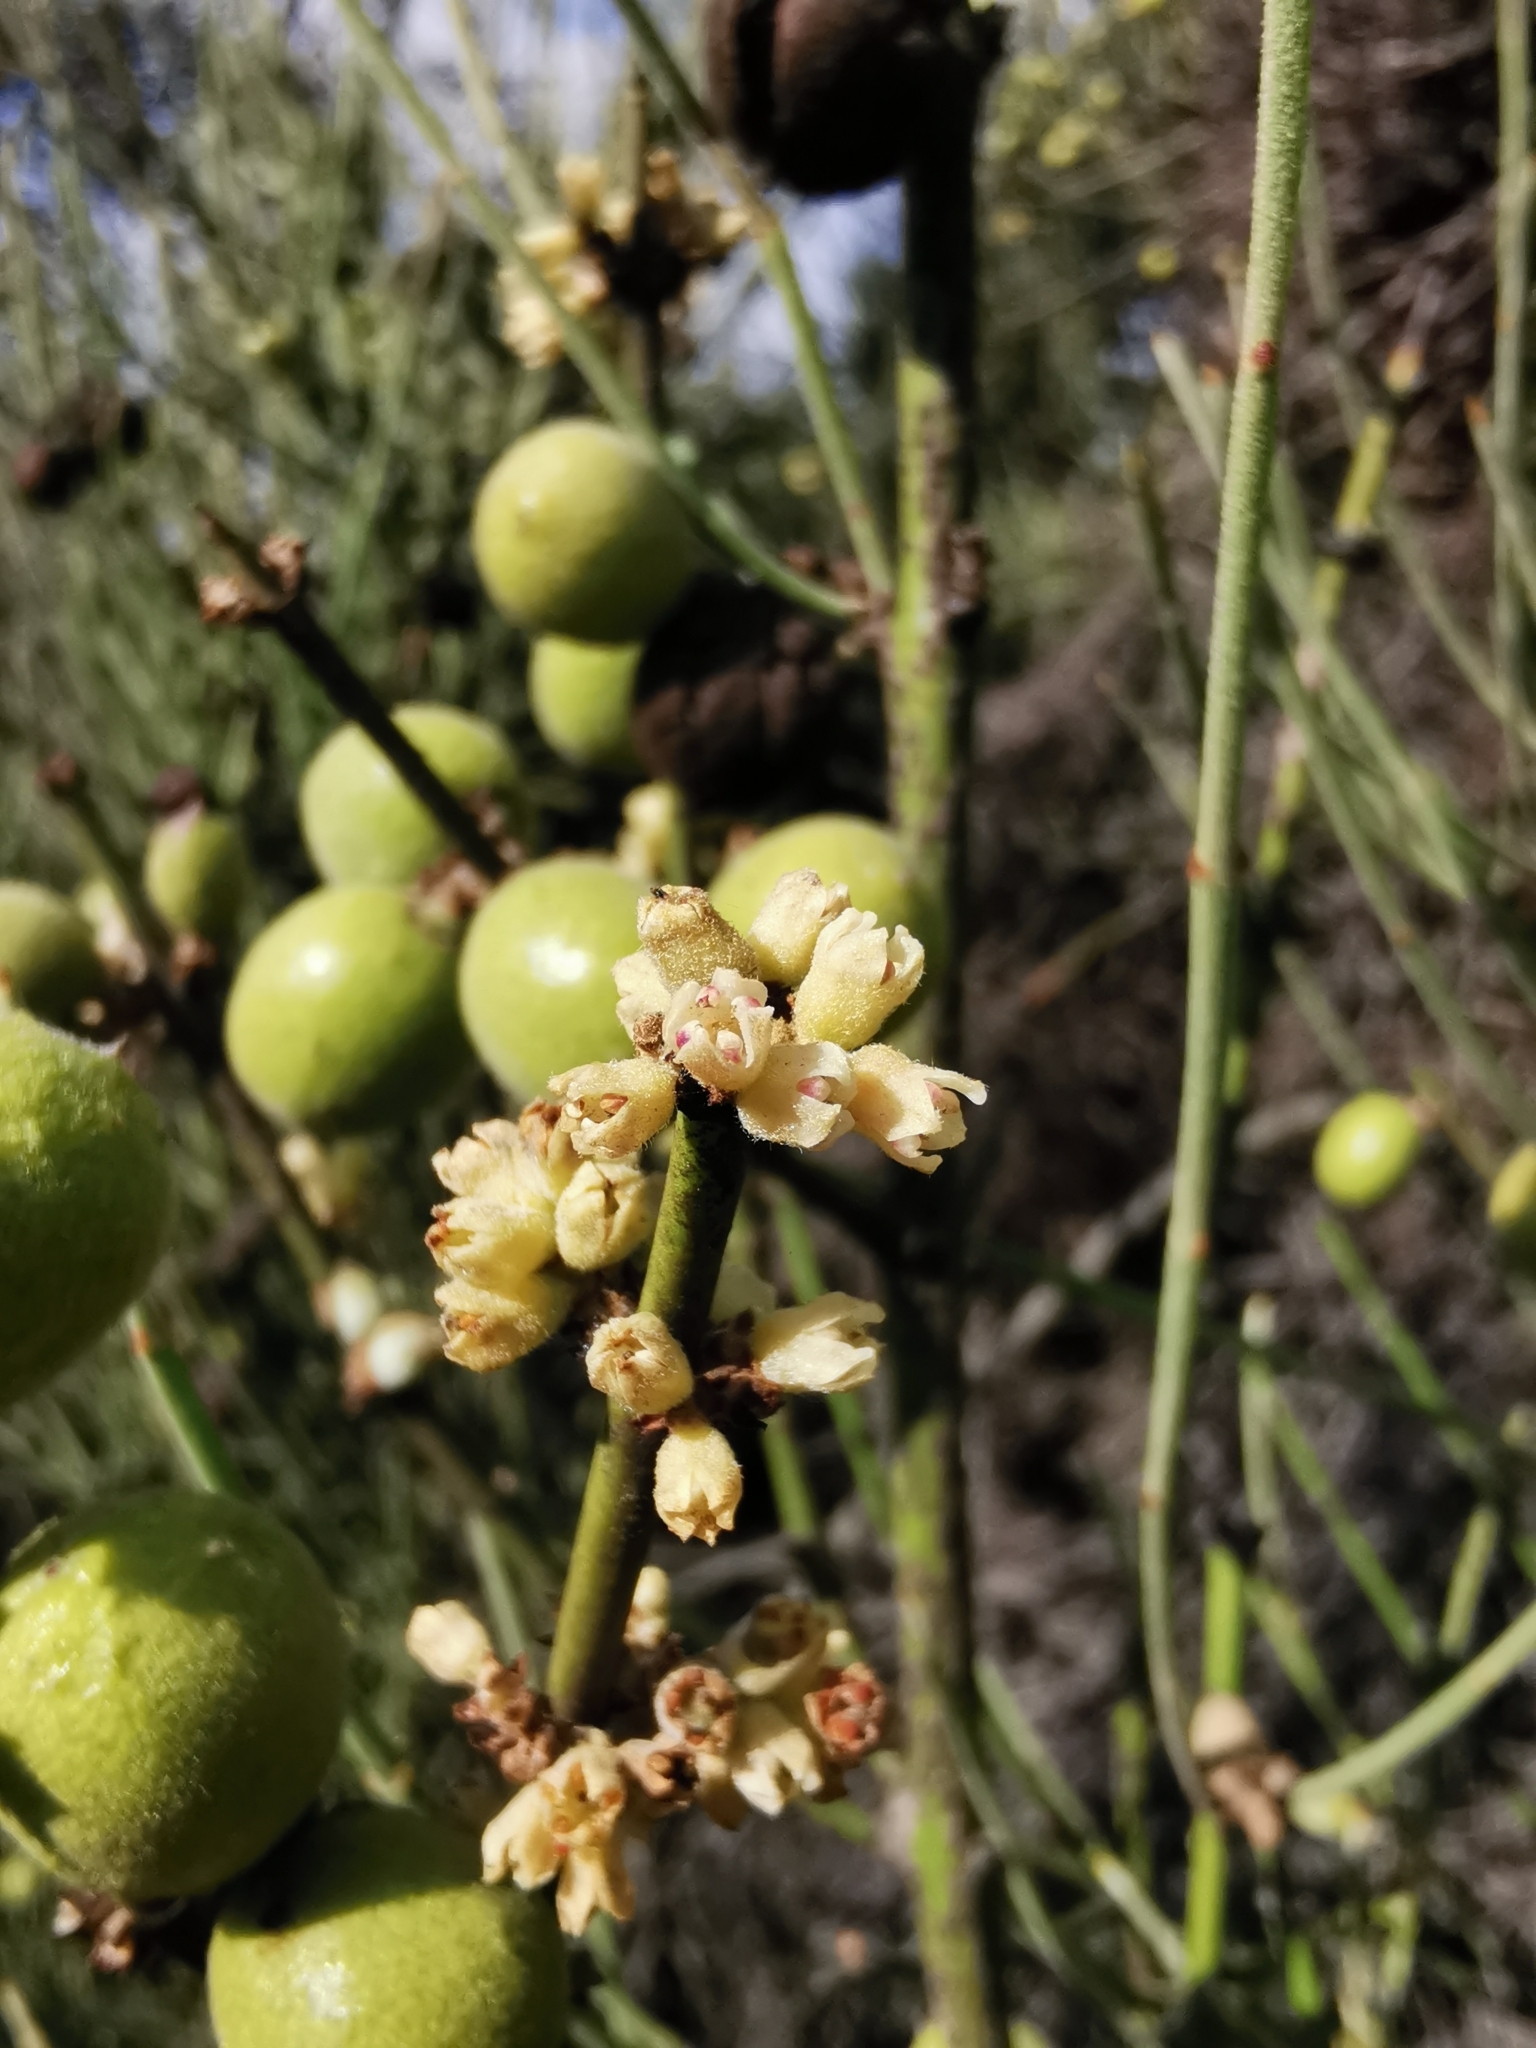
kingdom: Plantae
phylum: Tracheophyta
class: Magnoliopsida
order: Rosales
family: Rhamnaceae
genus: Retanilla
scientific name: Retanilla ephedra
